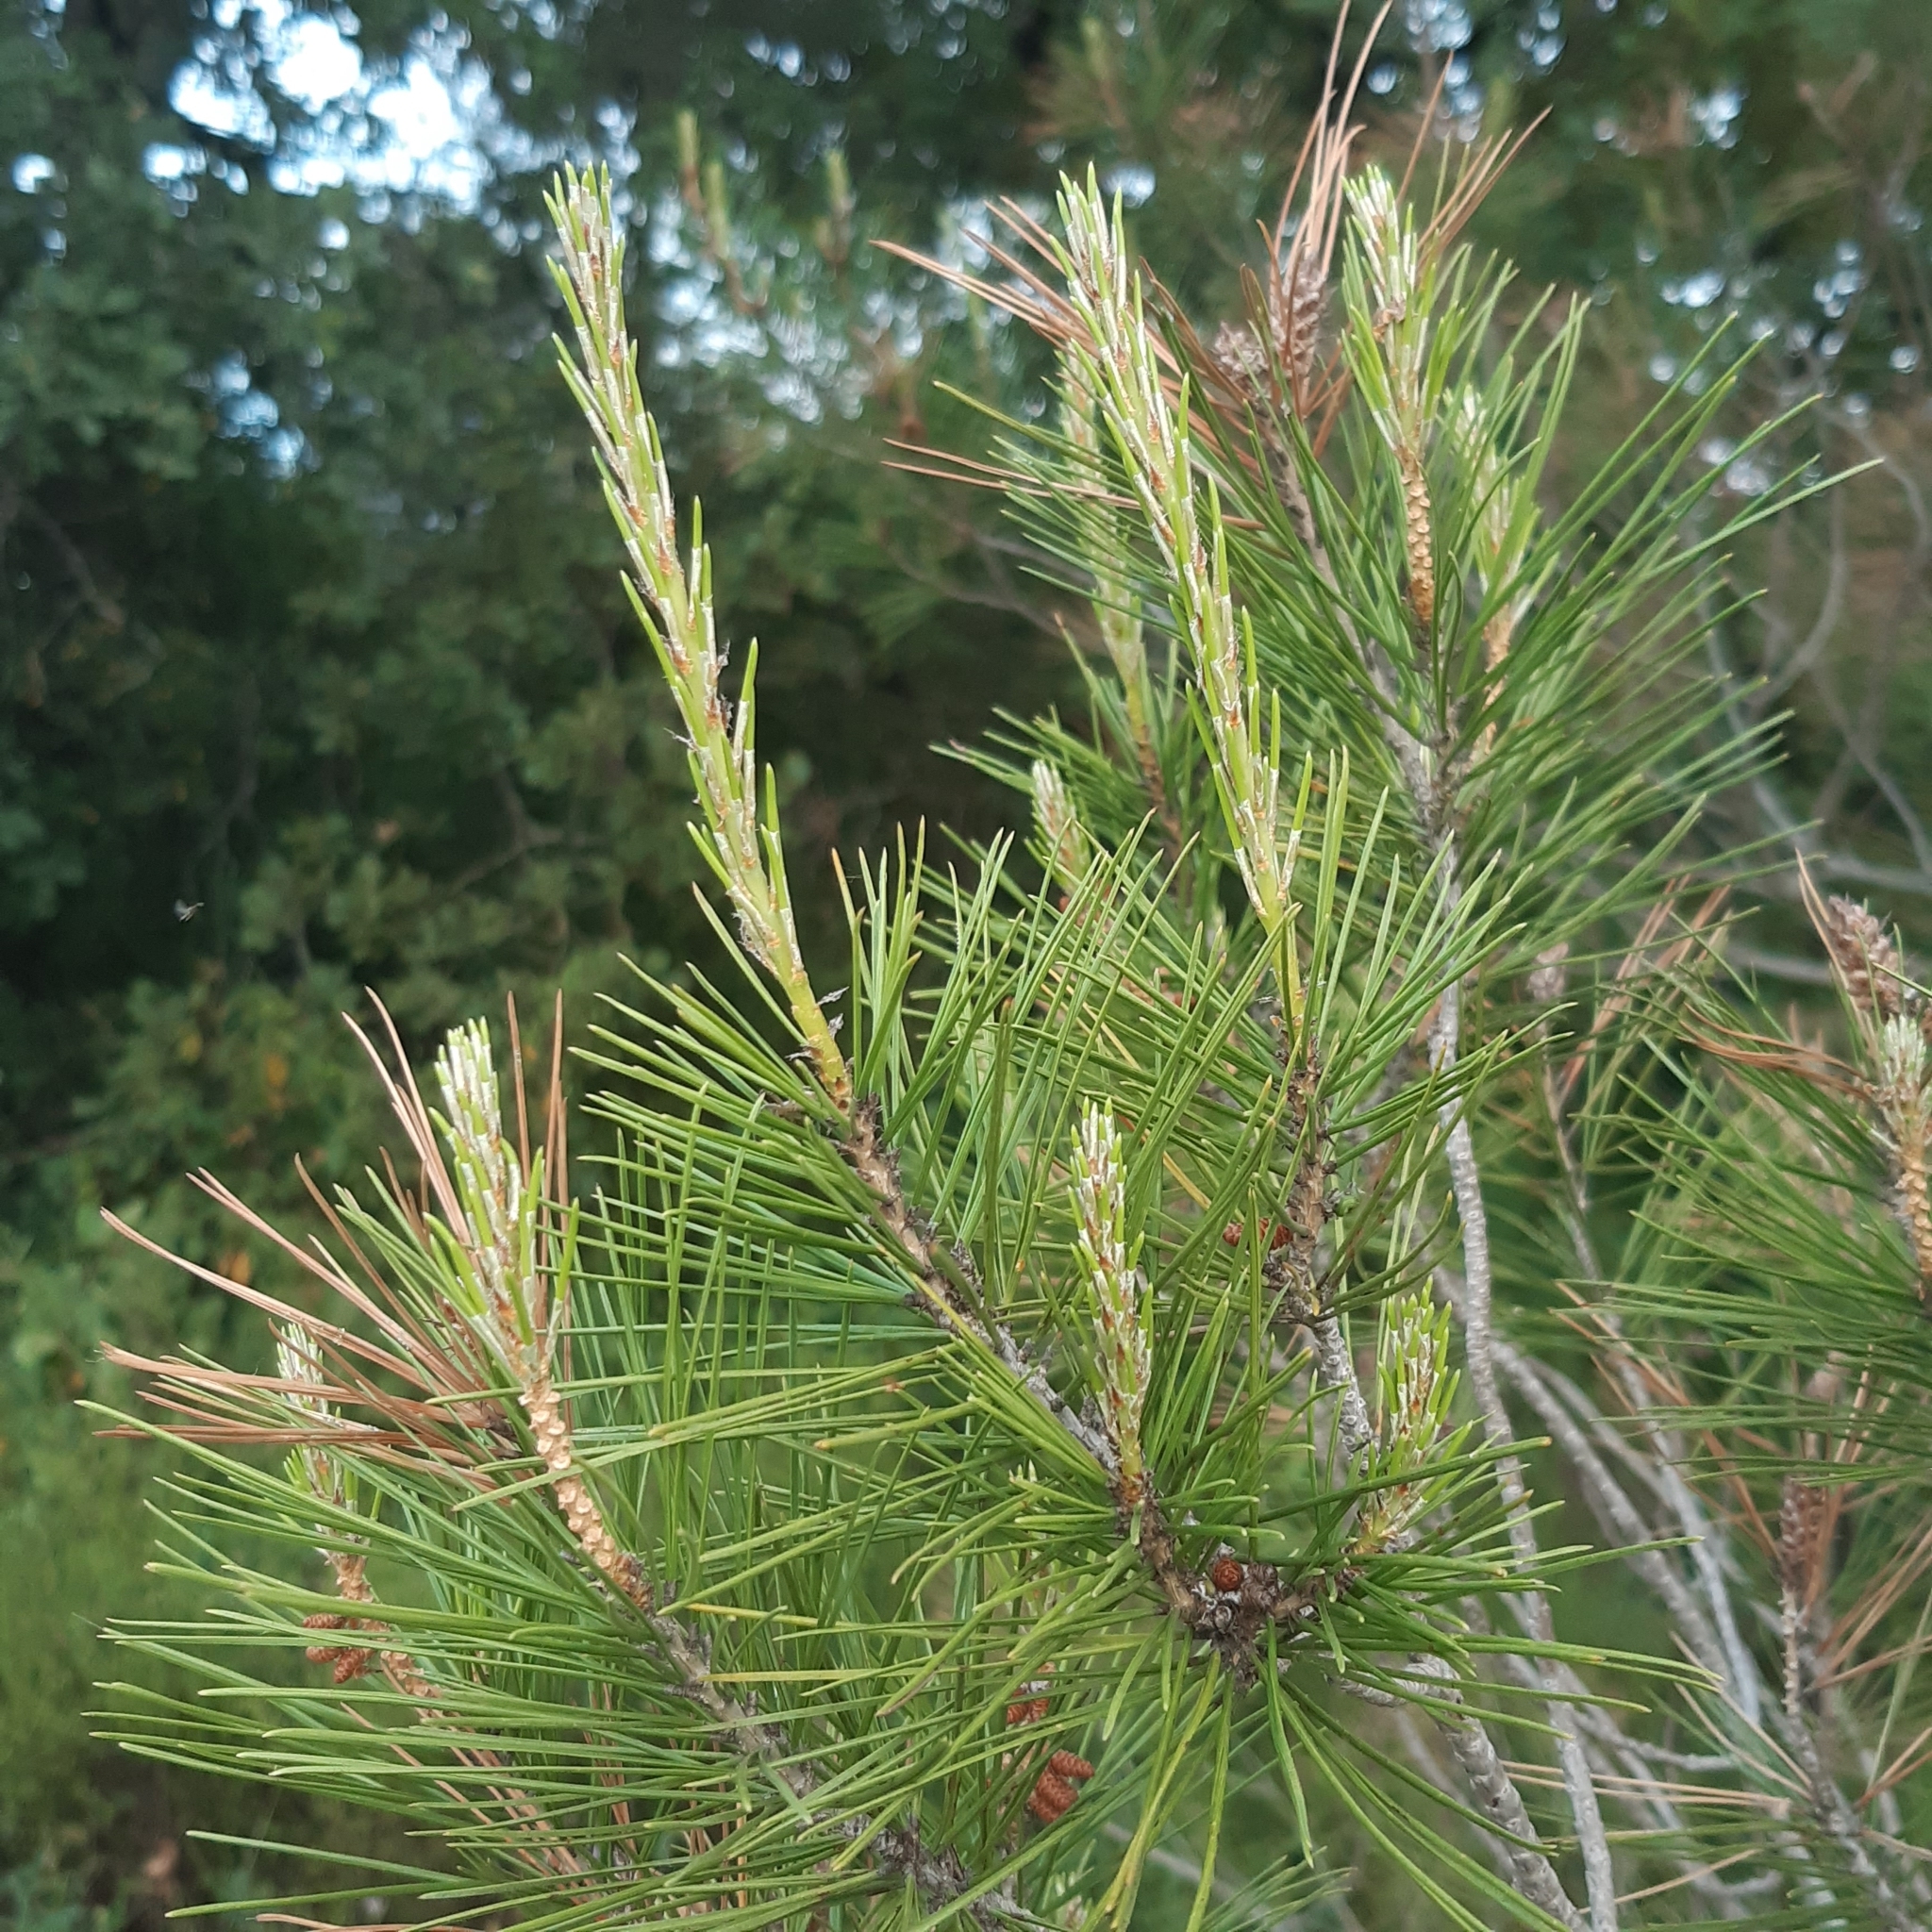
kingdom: Plantae
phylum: Tracheophyta
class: Pinopsida
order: Pinales
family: Pinaceae
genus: Pinus
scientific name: Pinus halepensis
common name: Aleppo pine
